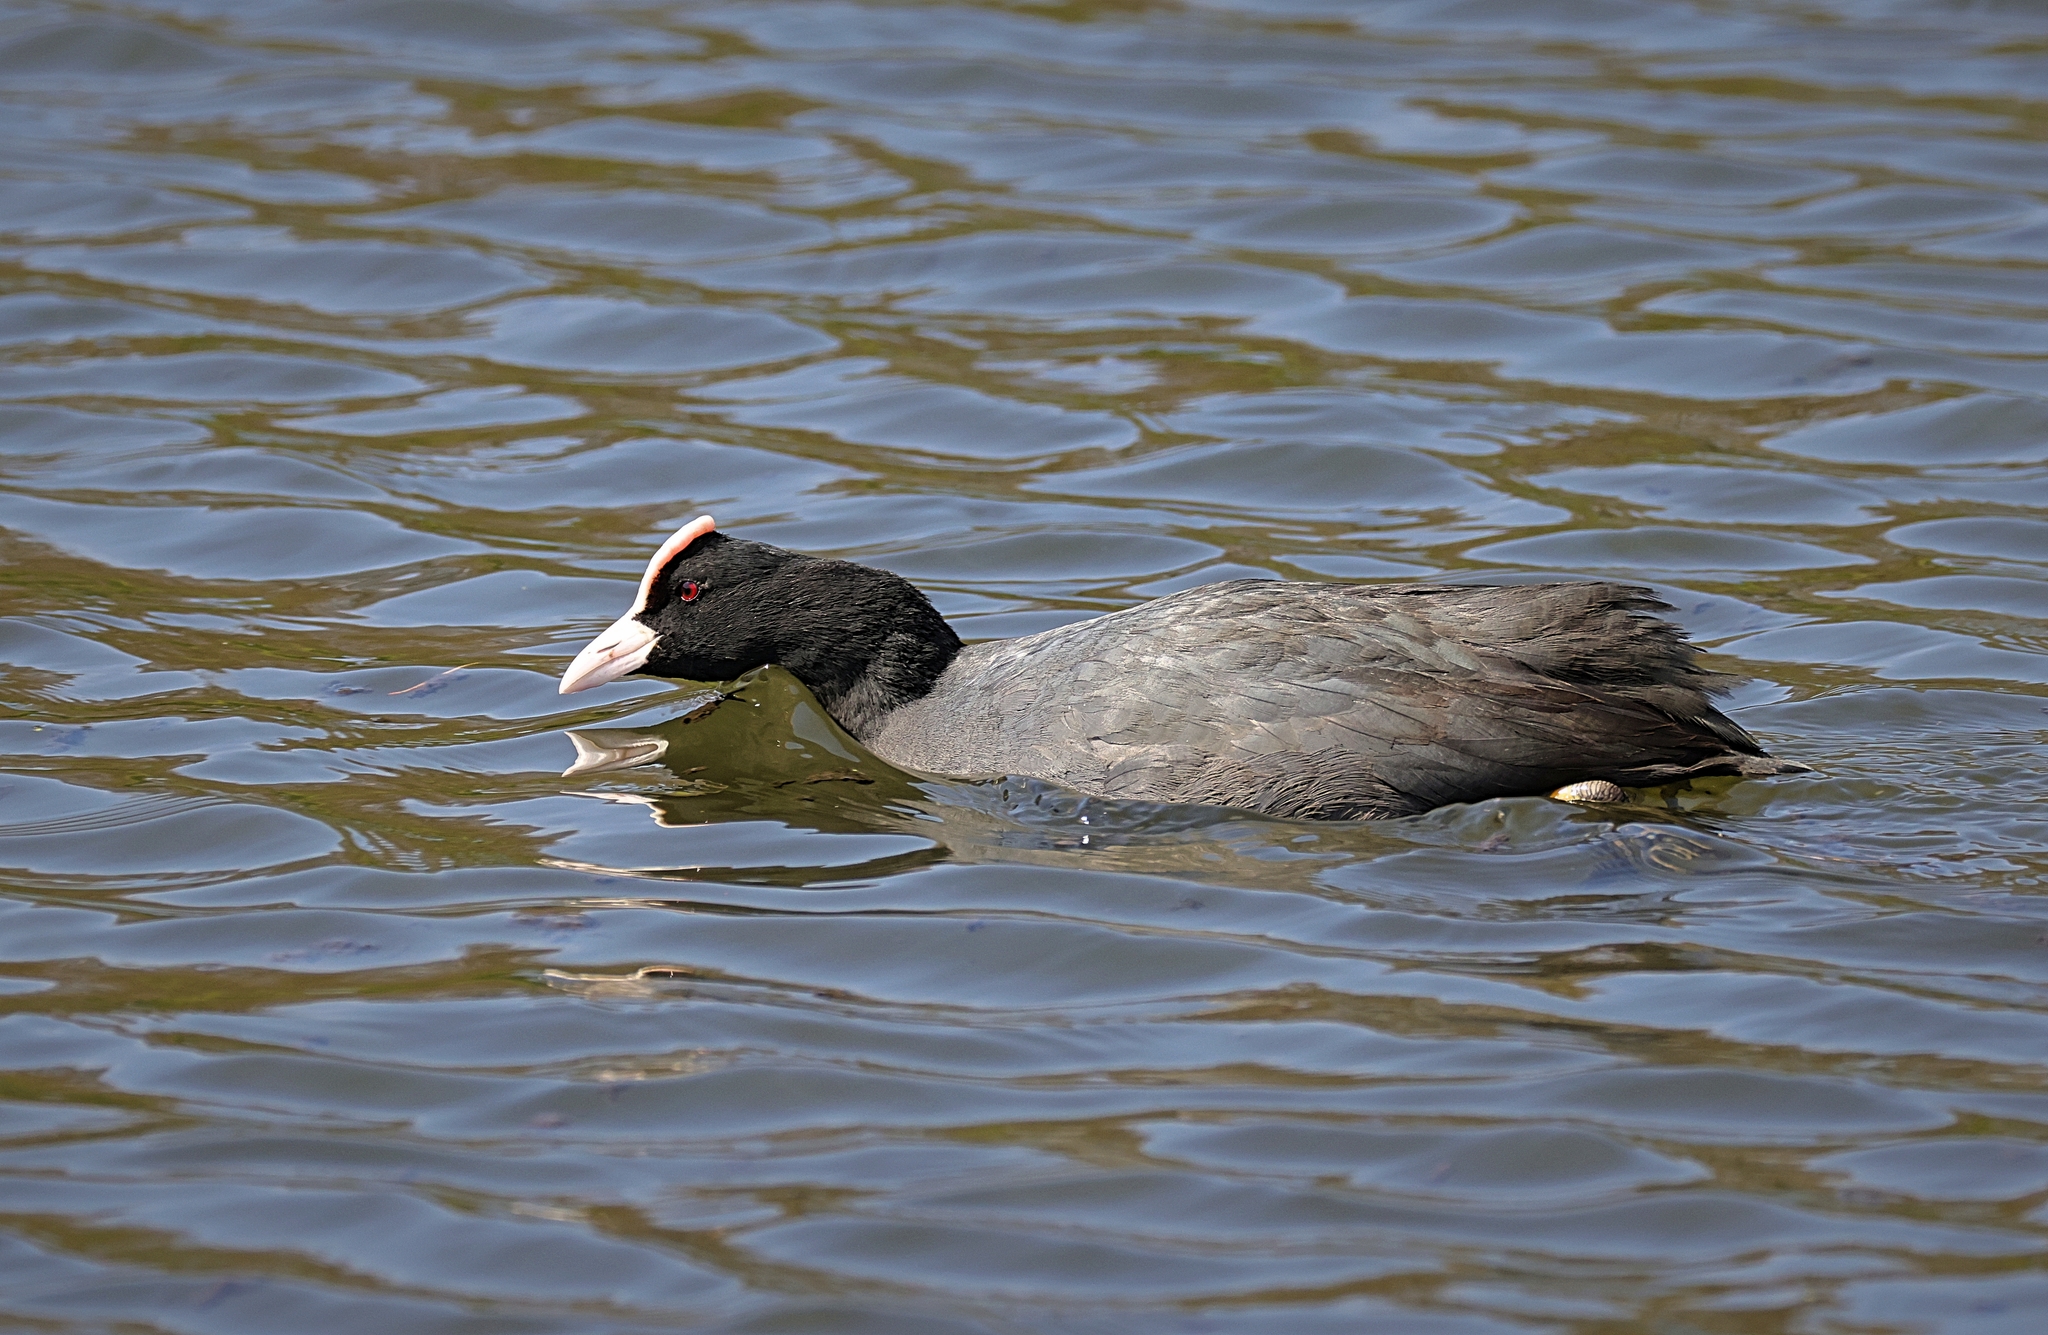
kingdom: Animalia
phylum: Chordata
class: Aves
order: Gruiformes
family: Rallidae
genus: Fulica
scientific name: Fulica atra
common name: Eurasian coot
